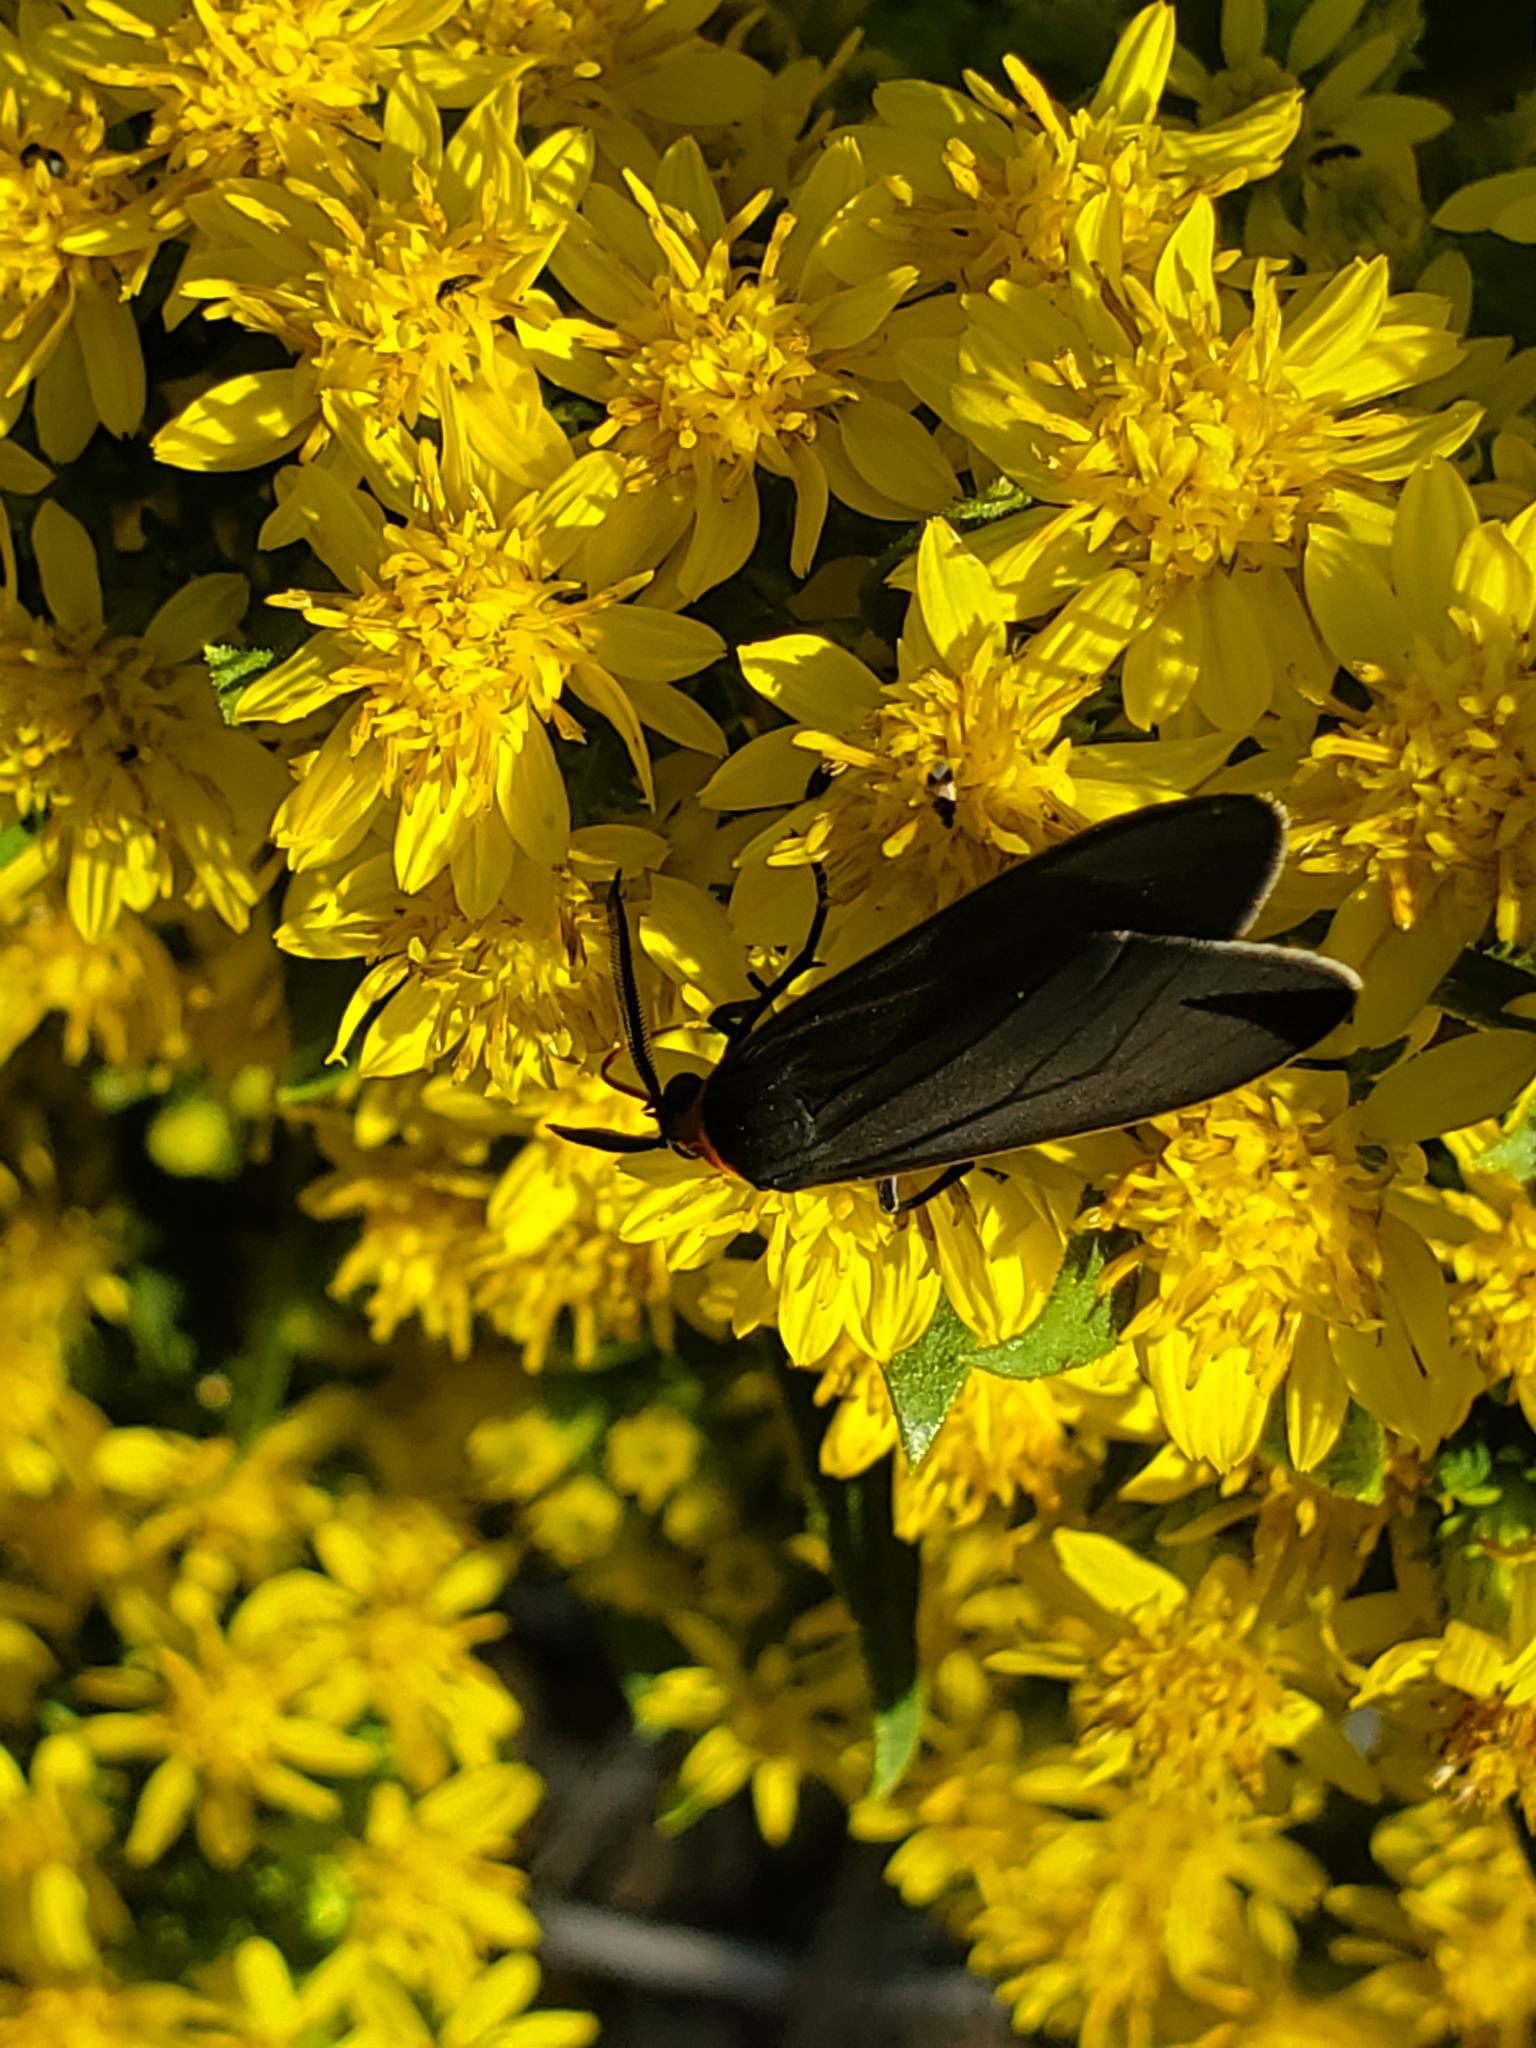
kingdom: Animalia
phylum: Arthropoda
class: Insecta
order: Lepidoptera
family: Erebidae
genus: Cisseps
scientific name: Cisseps fulvicollis
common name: Yellow-collared scape moth
